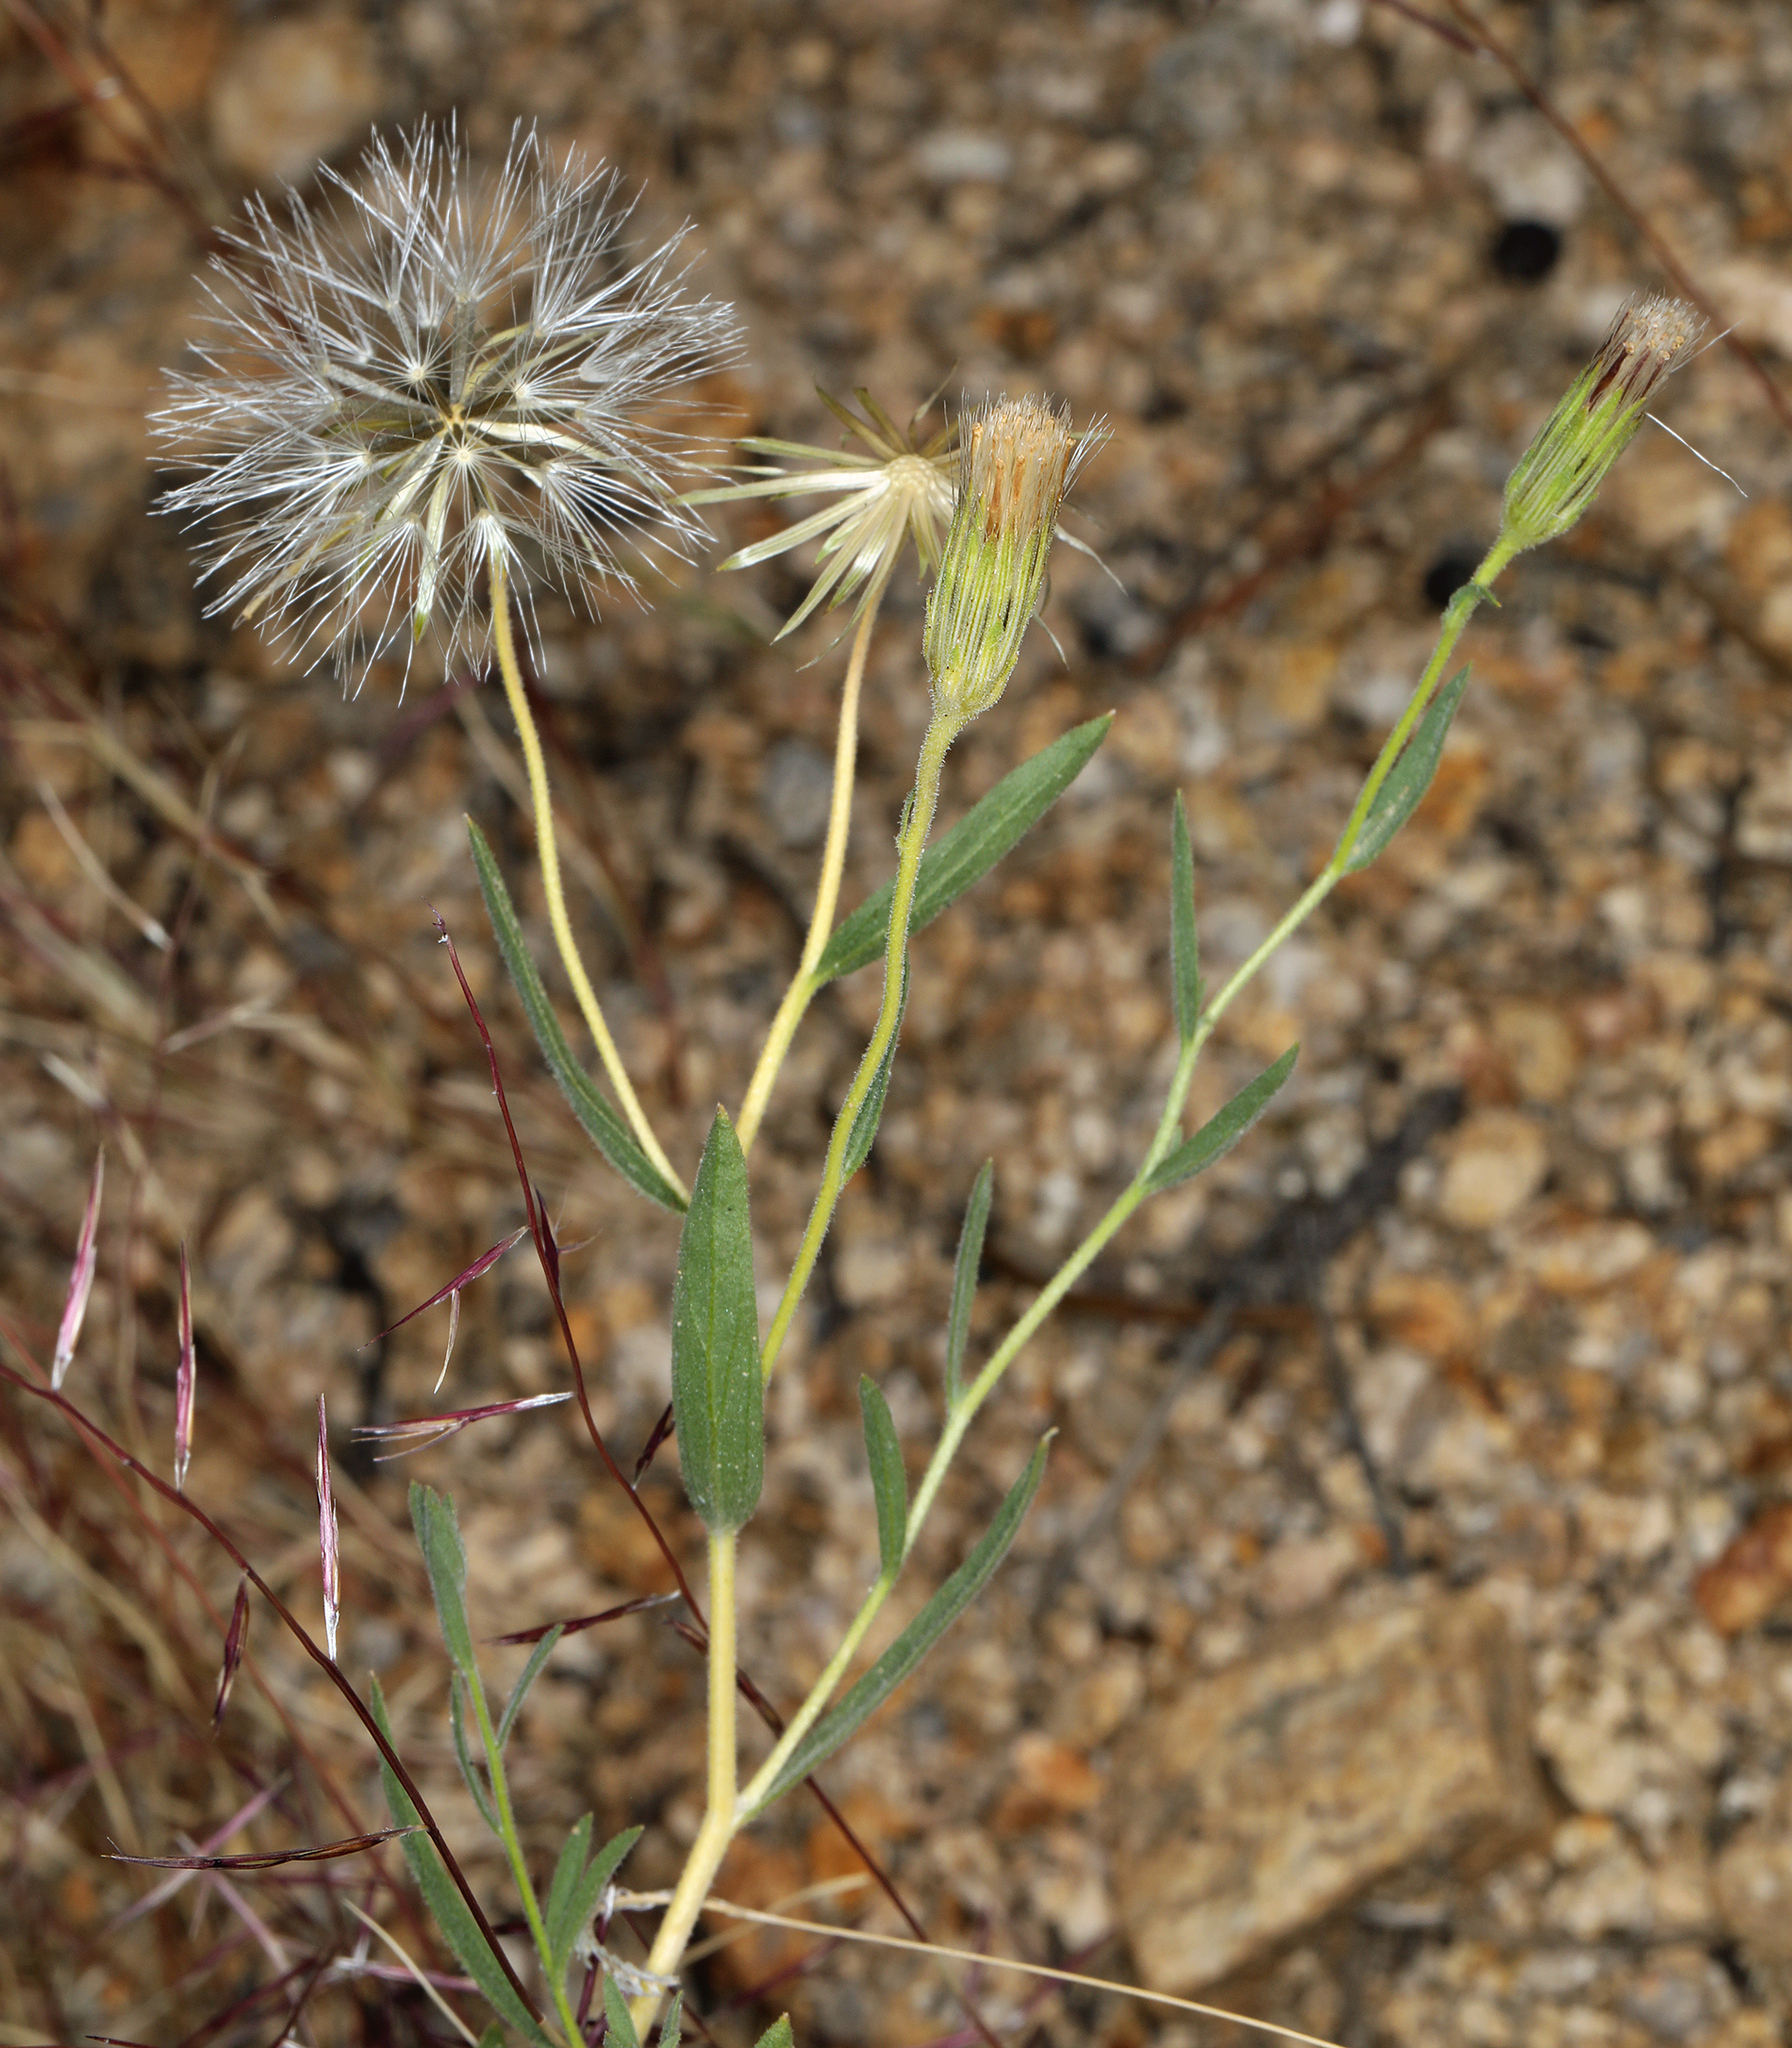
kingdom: Plantae
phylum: Tracheophyta
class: Magnoliopsida
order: Asterales
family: Asteraceae
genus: Brickellia
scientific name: Brickellia oblongifolia
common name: Mojave brickellbush
